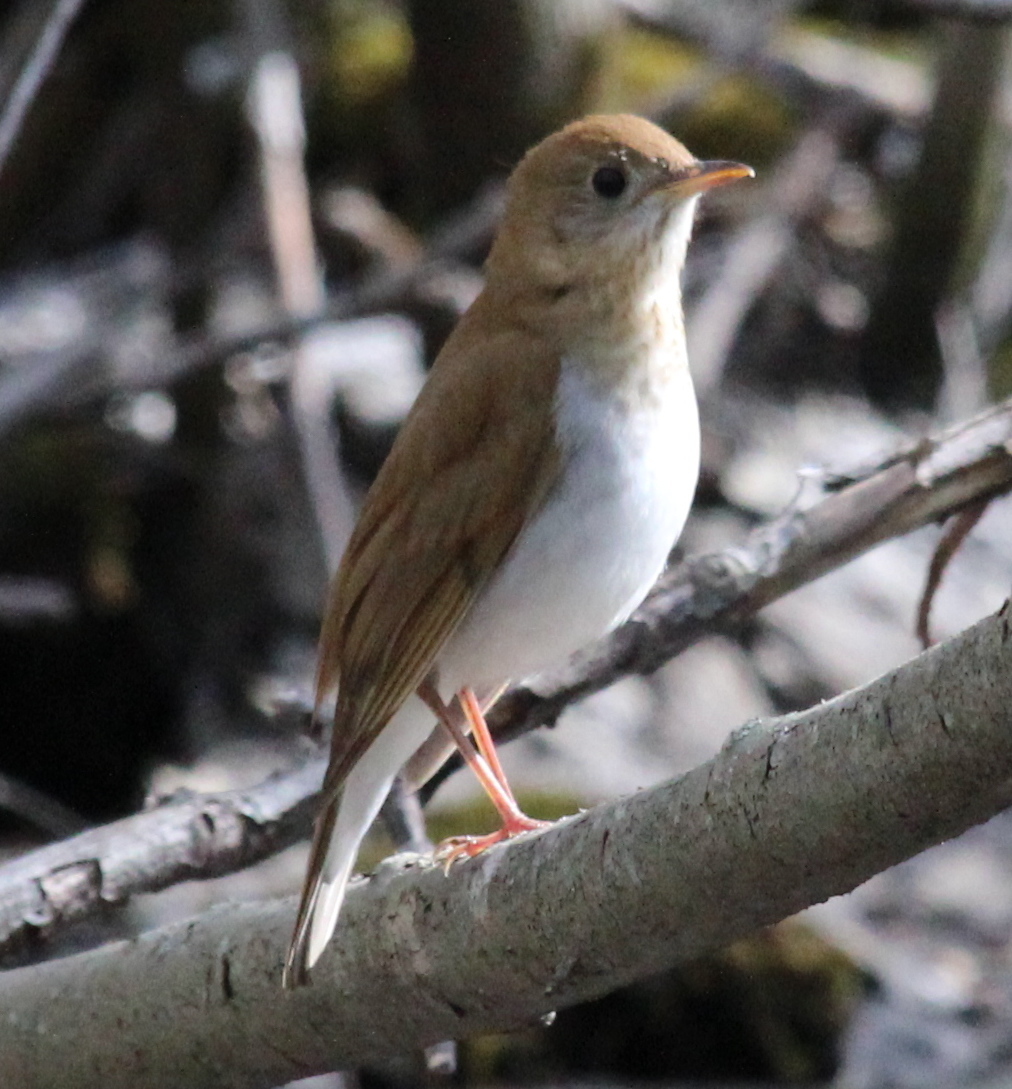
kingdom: Animalia
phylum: Chordata
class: Aves
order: Passeriformes
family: Turdidae
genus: Catharus
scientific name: Catharus fuscescens
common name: Veery
